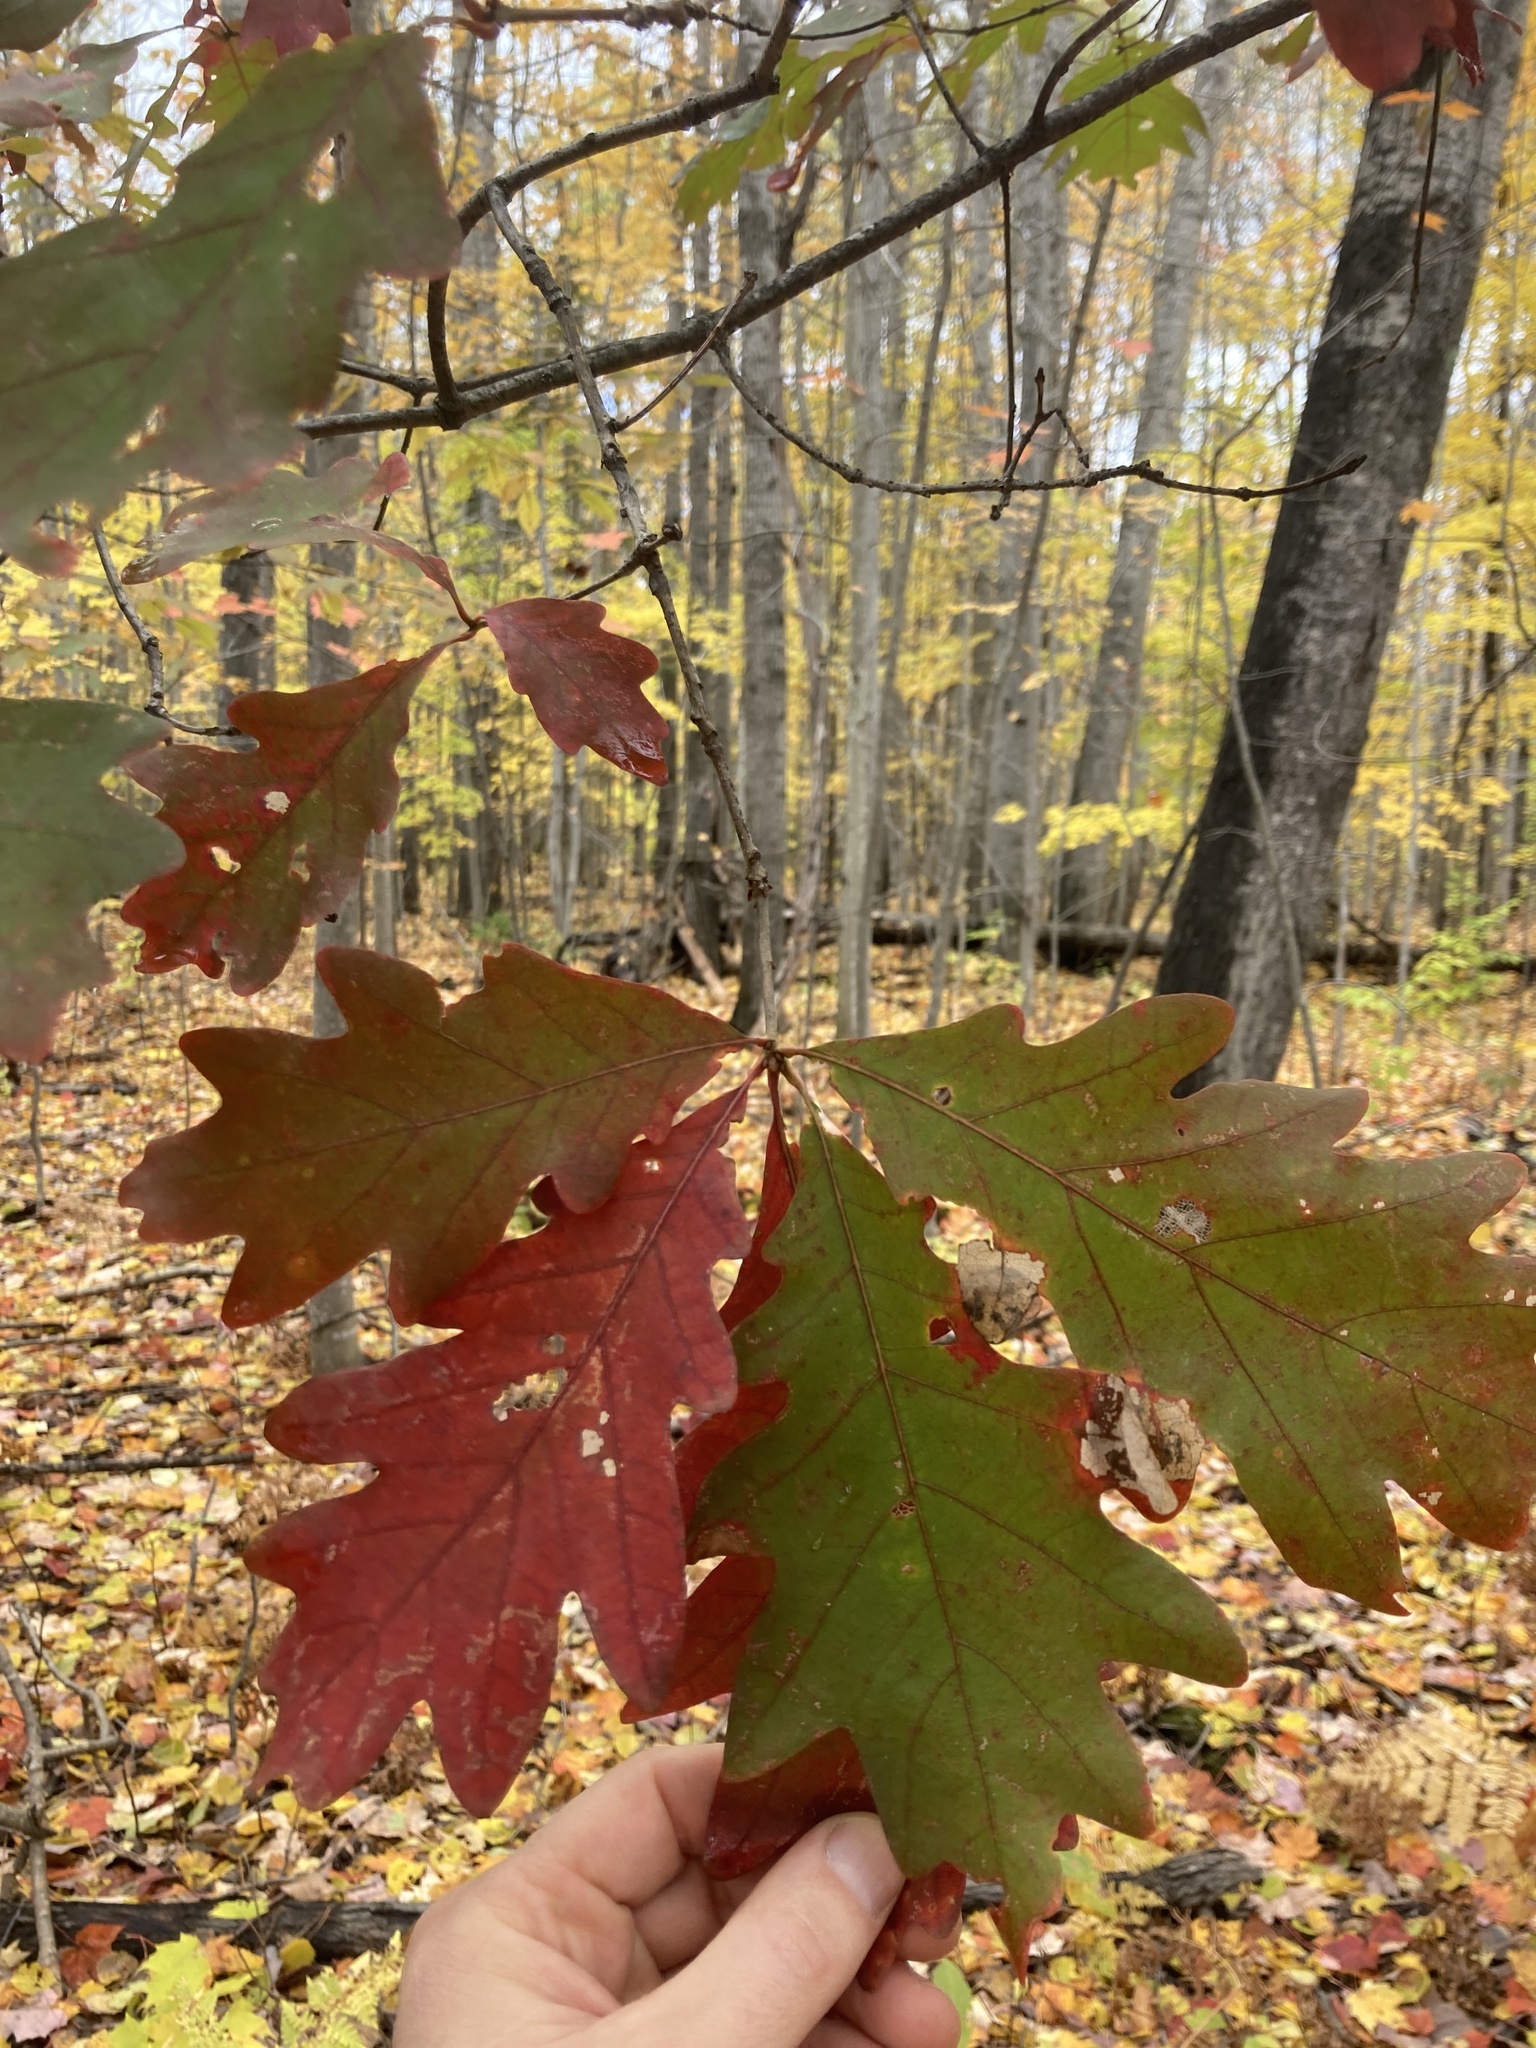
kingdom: Plantae
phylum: Tracheophyta
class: Magnoliopsida
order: Fagales
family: Fagaceae
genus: Quercus
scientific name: Quercus alba
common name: White oak
